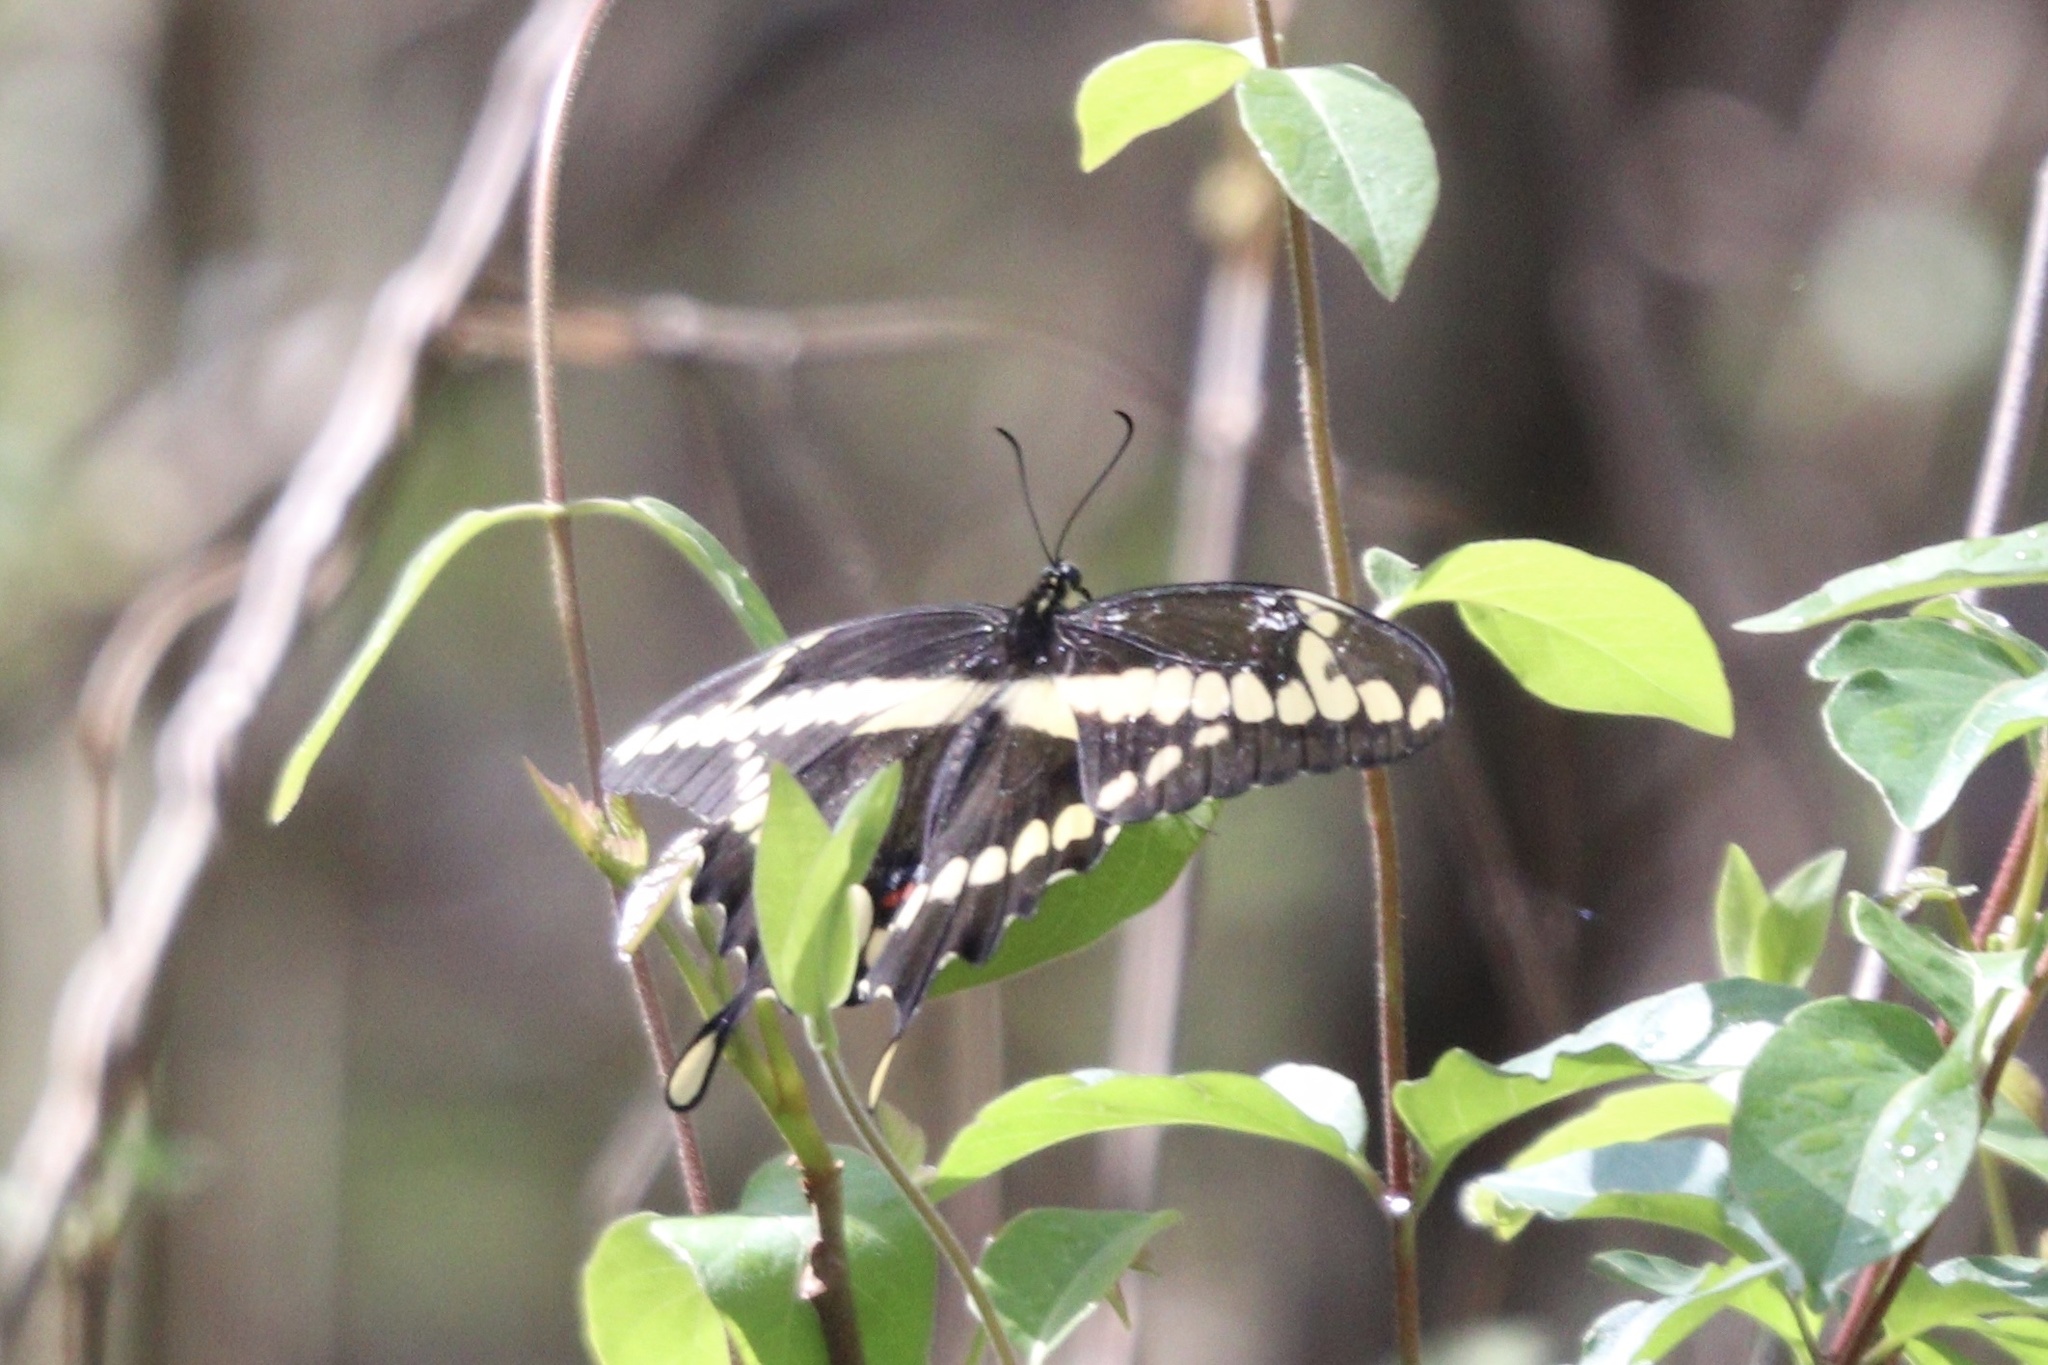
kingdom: Animalia
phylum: Arthropoda
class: Insecta
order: Lepidoptera
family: Papilionidae
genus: Papilio
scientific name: Papilio cresphontes
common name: Giant swallowtail
